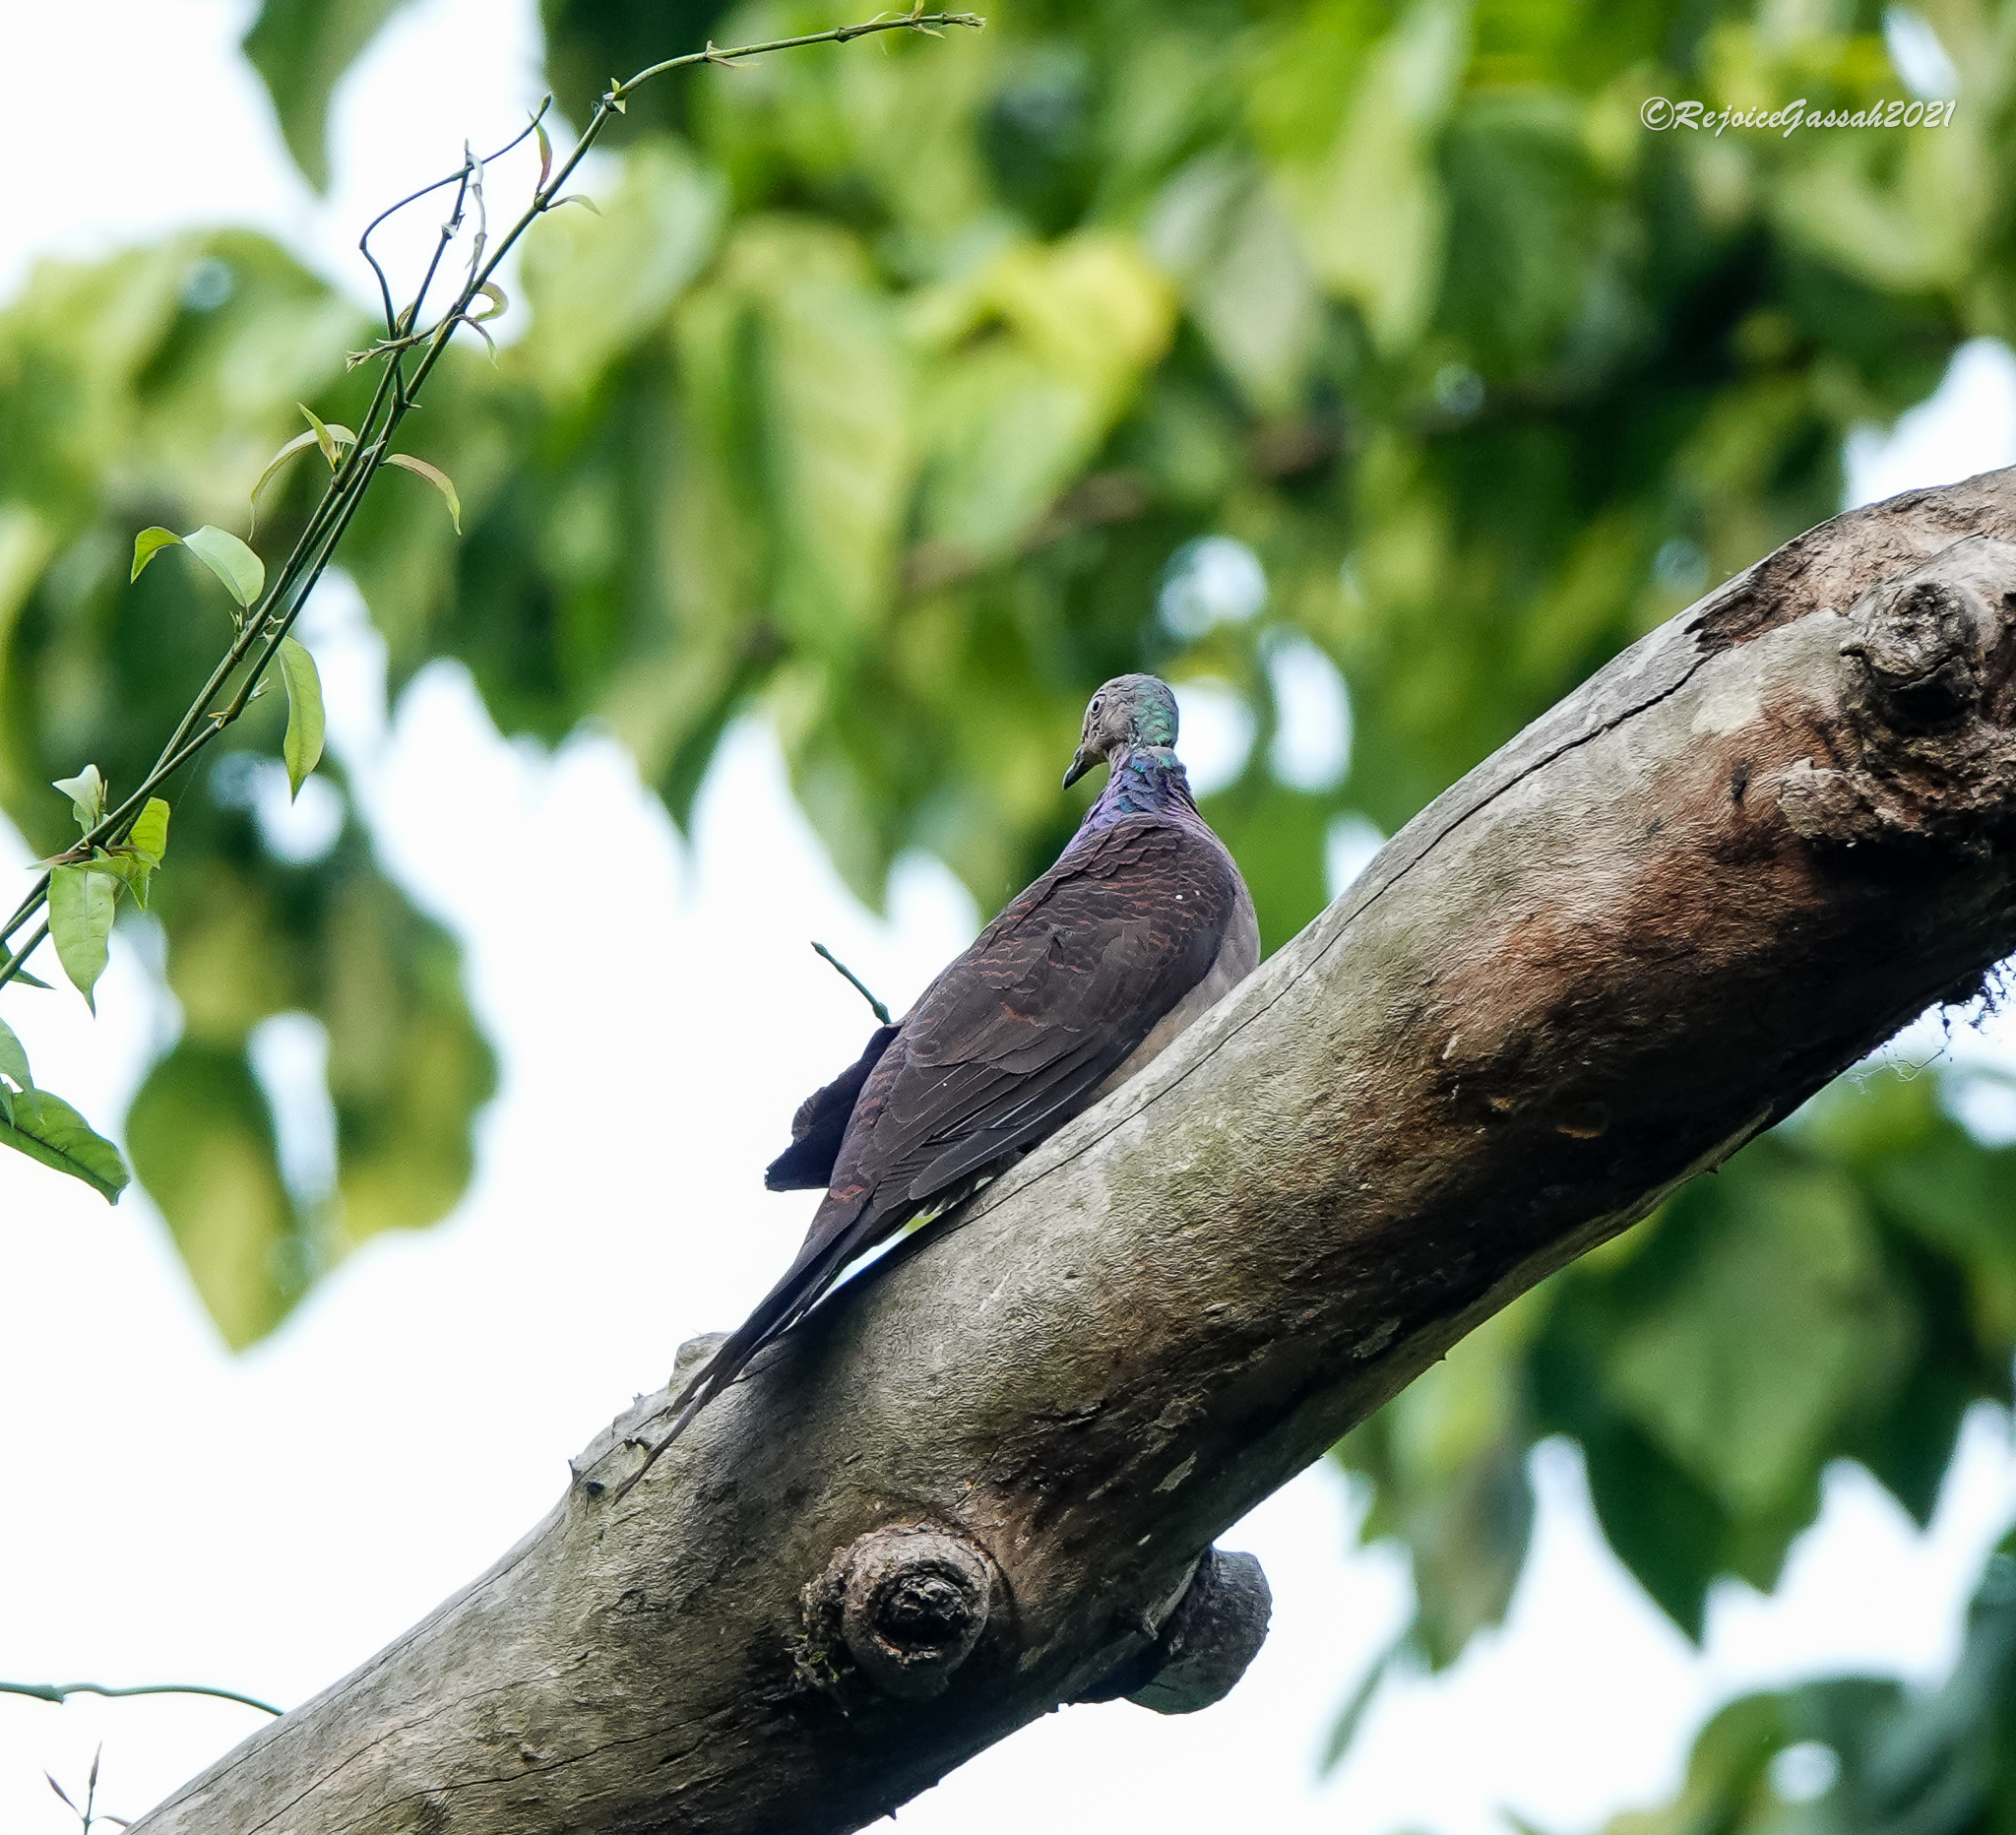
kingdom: Animalia
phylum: Chordata
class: Aves
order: Columbiformes
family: Columbidae
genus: Macropygia
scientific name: Macropygia unchall
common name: Barred cuckoo-dove
